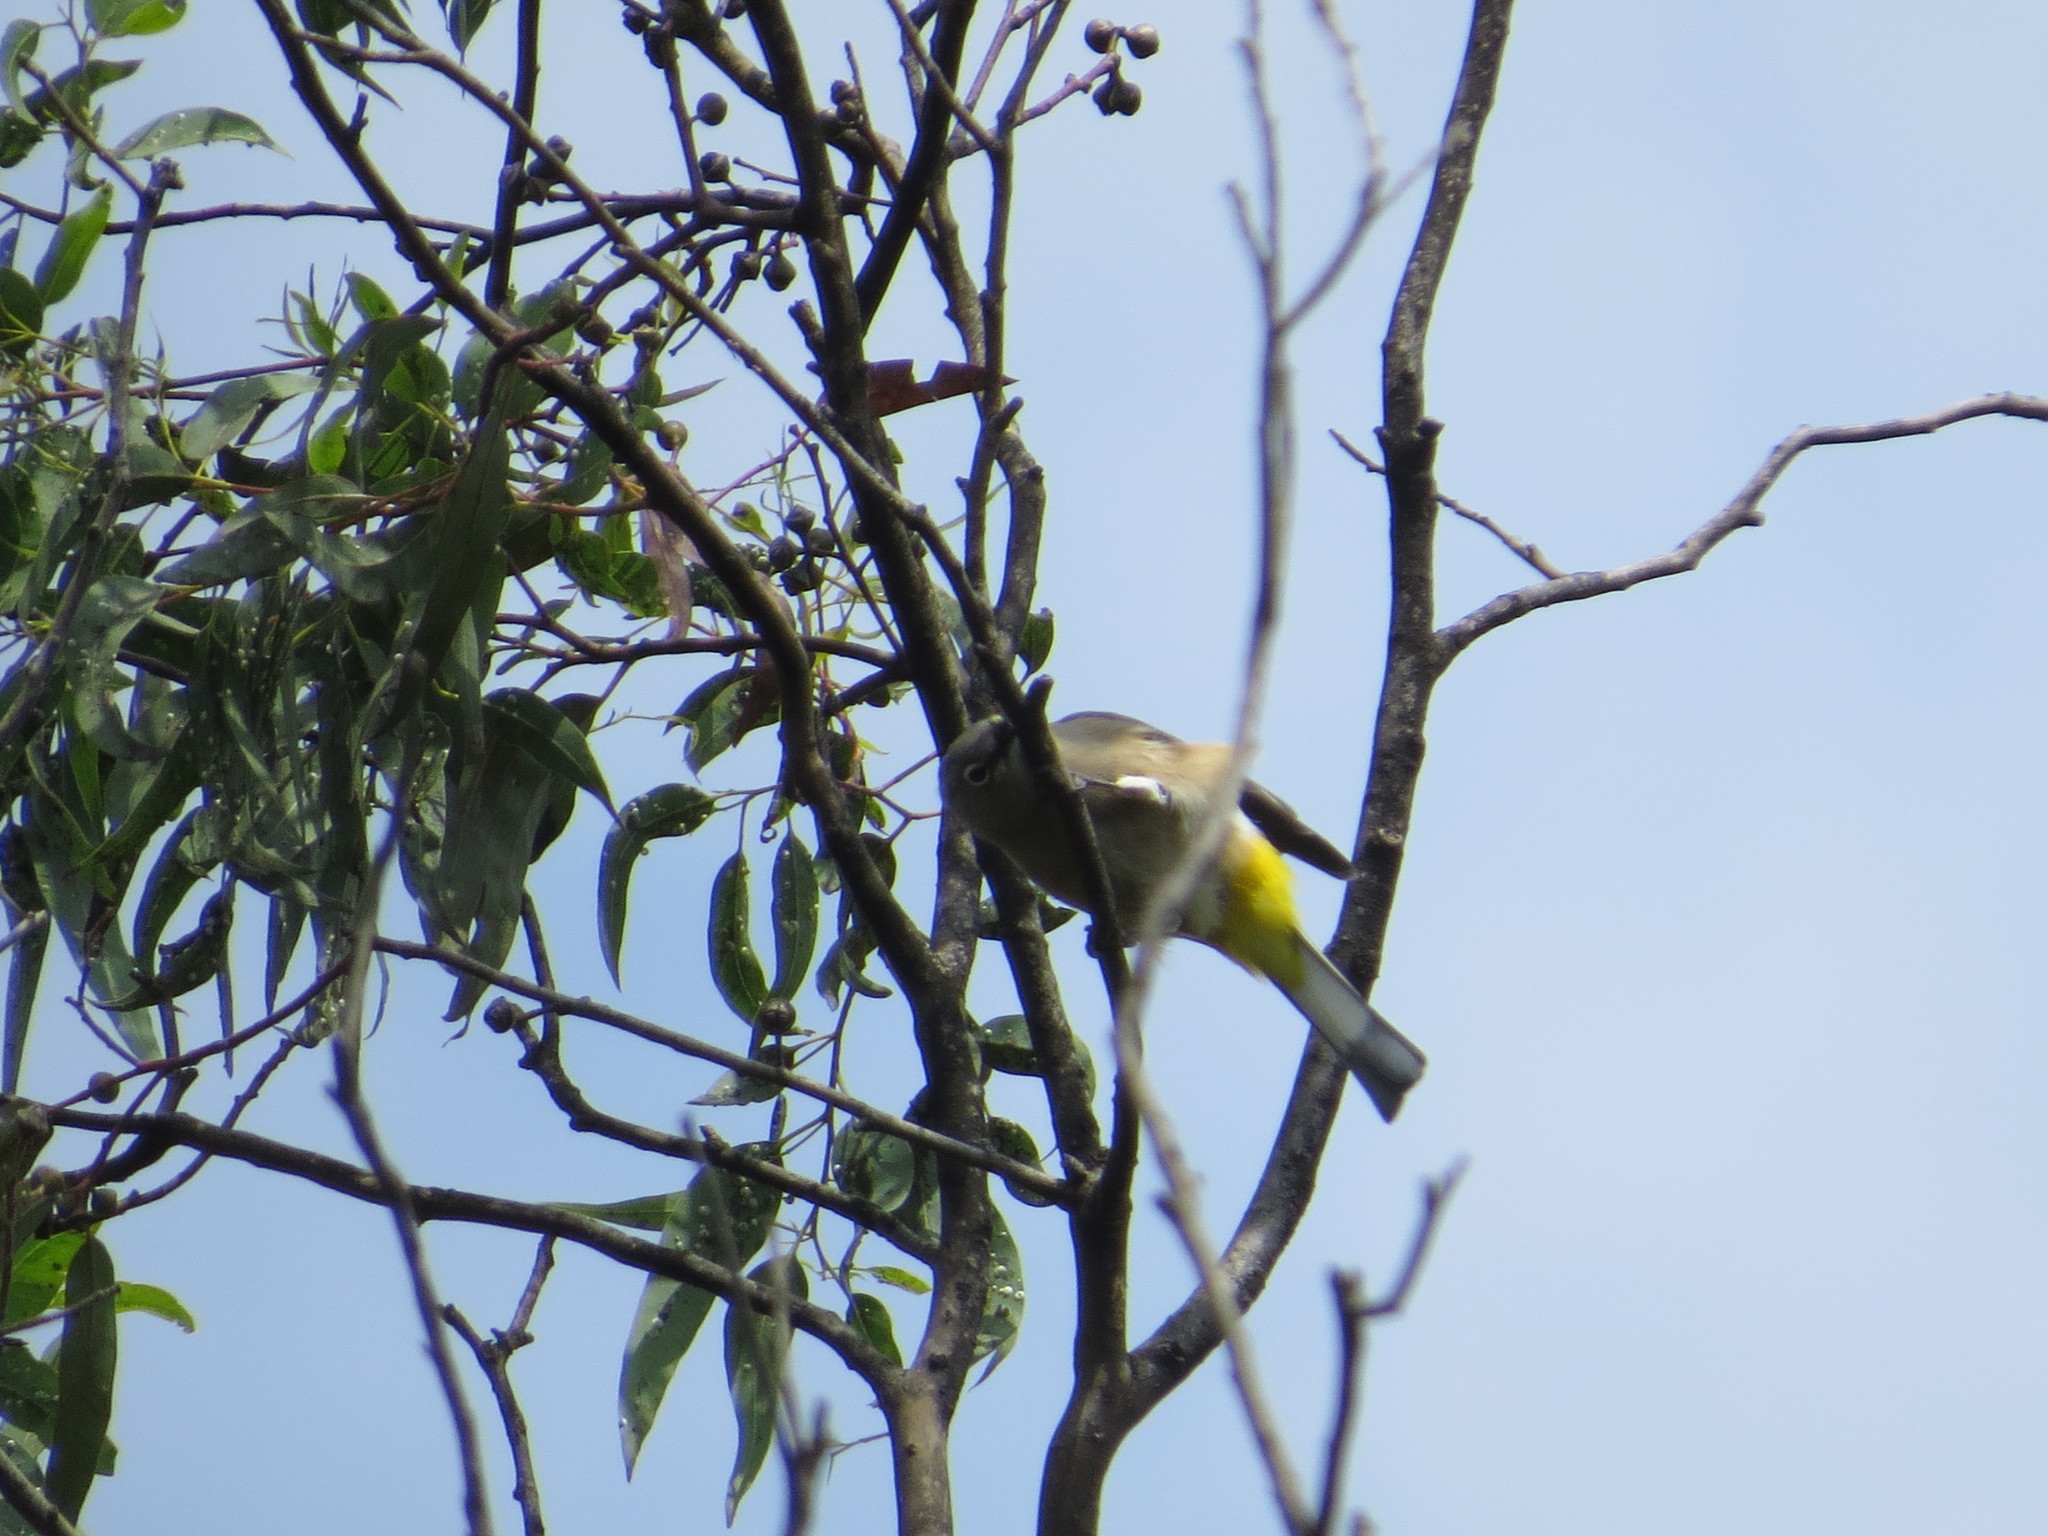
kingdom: Animalia
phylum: Chordata
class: Aves
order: Passeriformes
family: Ptilogonatidae
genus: Ptilogonys
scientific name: Ptilogonys cinereus
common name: Gray silky-flycatcher
